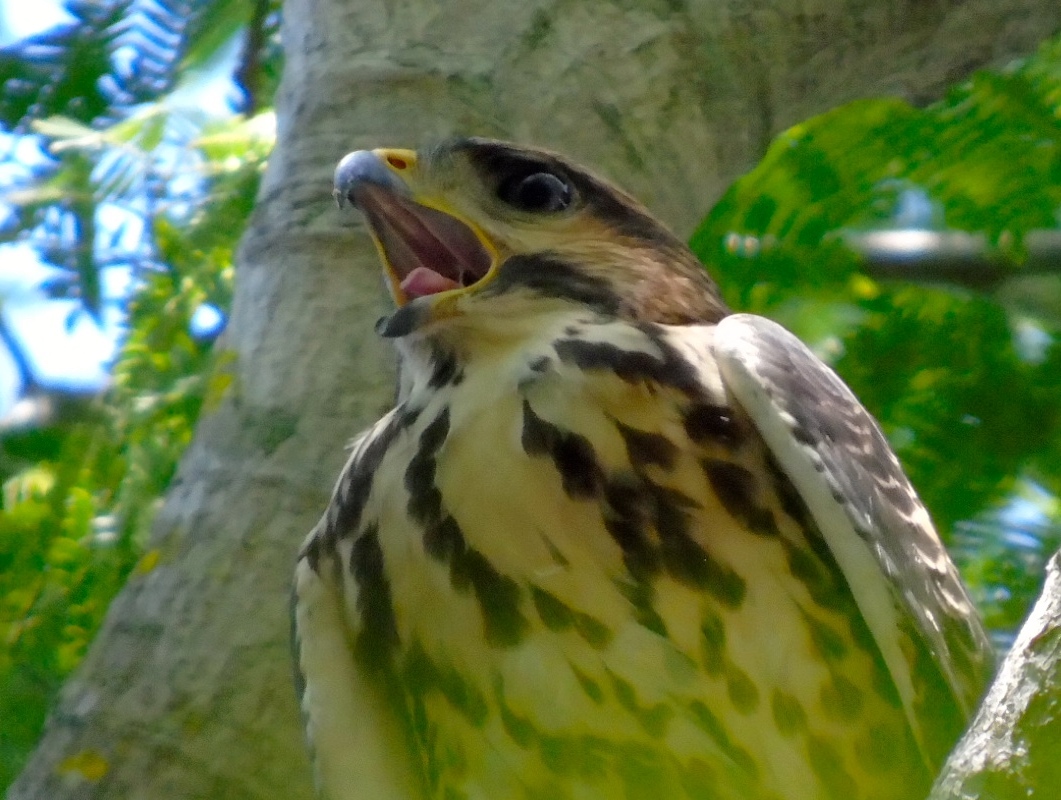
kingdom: Animalia
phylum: Chordata
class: Aves
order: Accipitriformes
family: Accipitridae
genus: Buteo
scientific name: Buteo nitidus
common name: Grey-lined hawk
